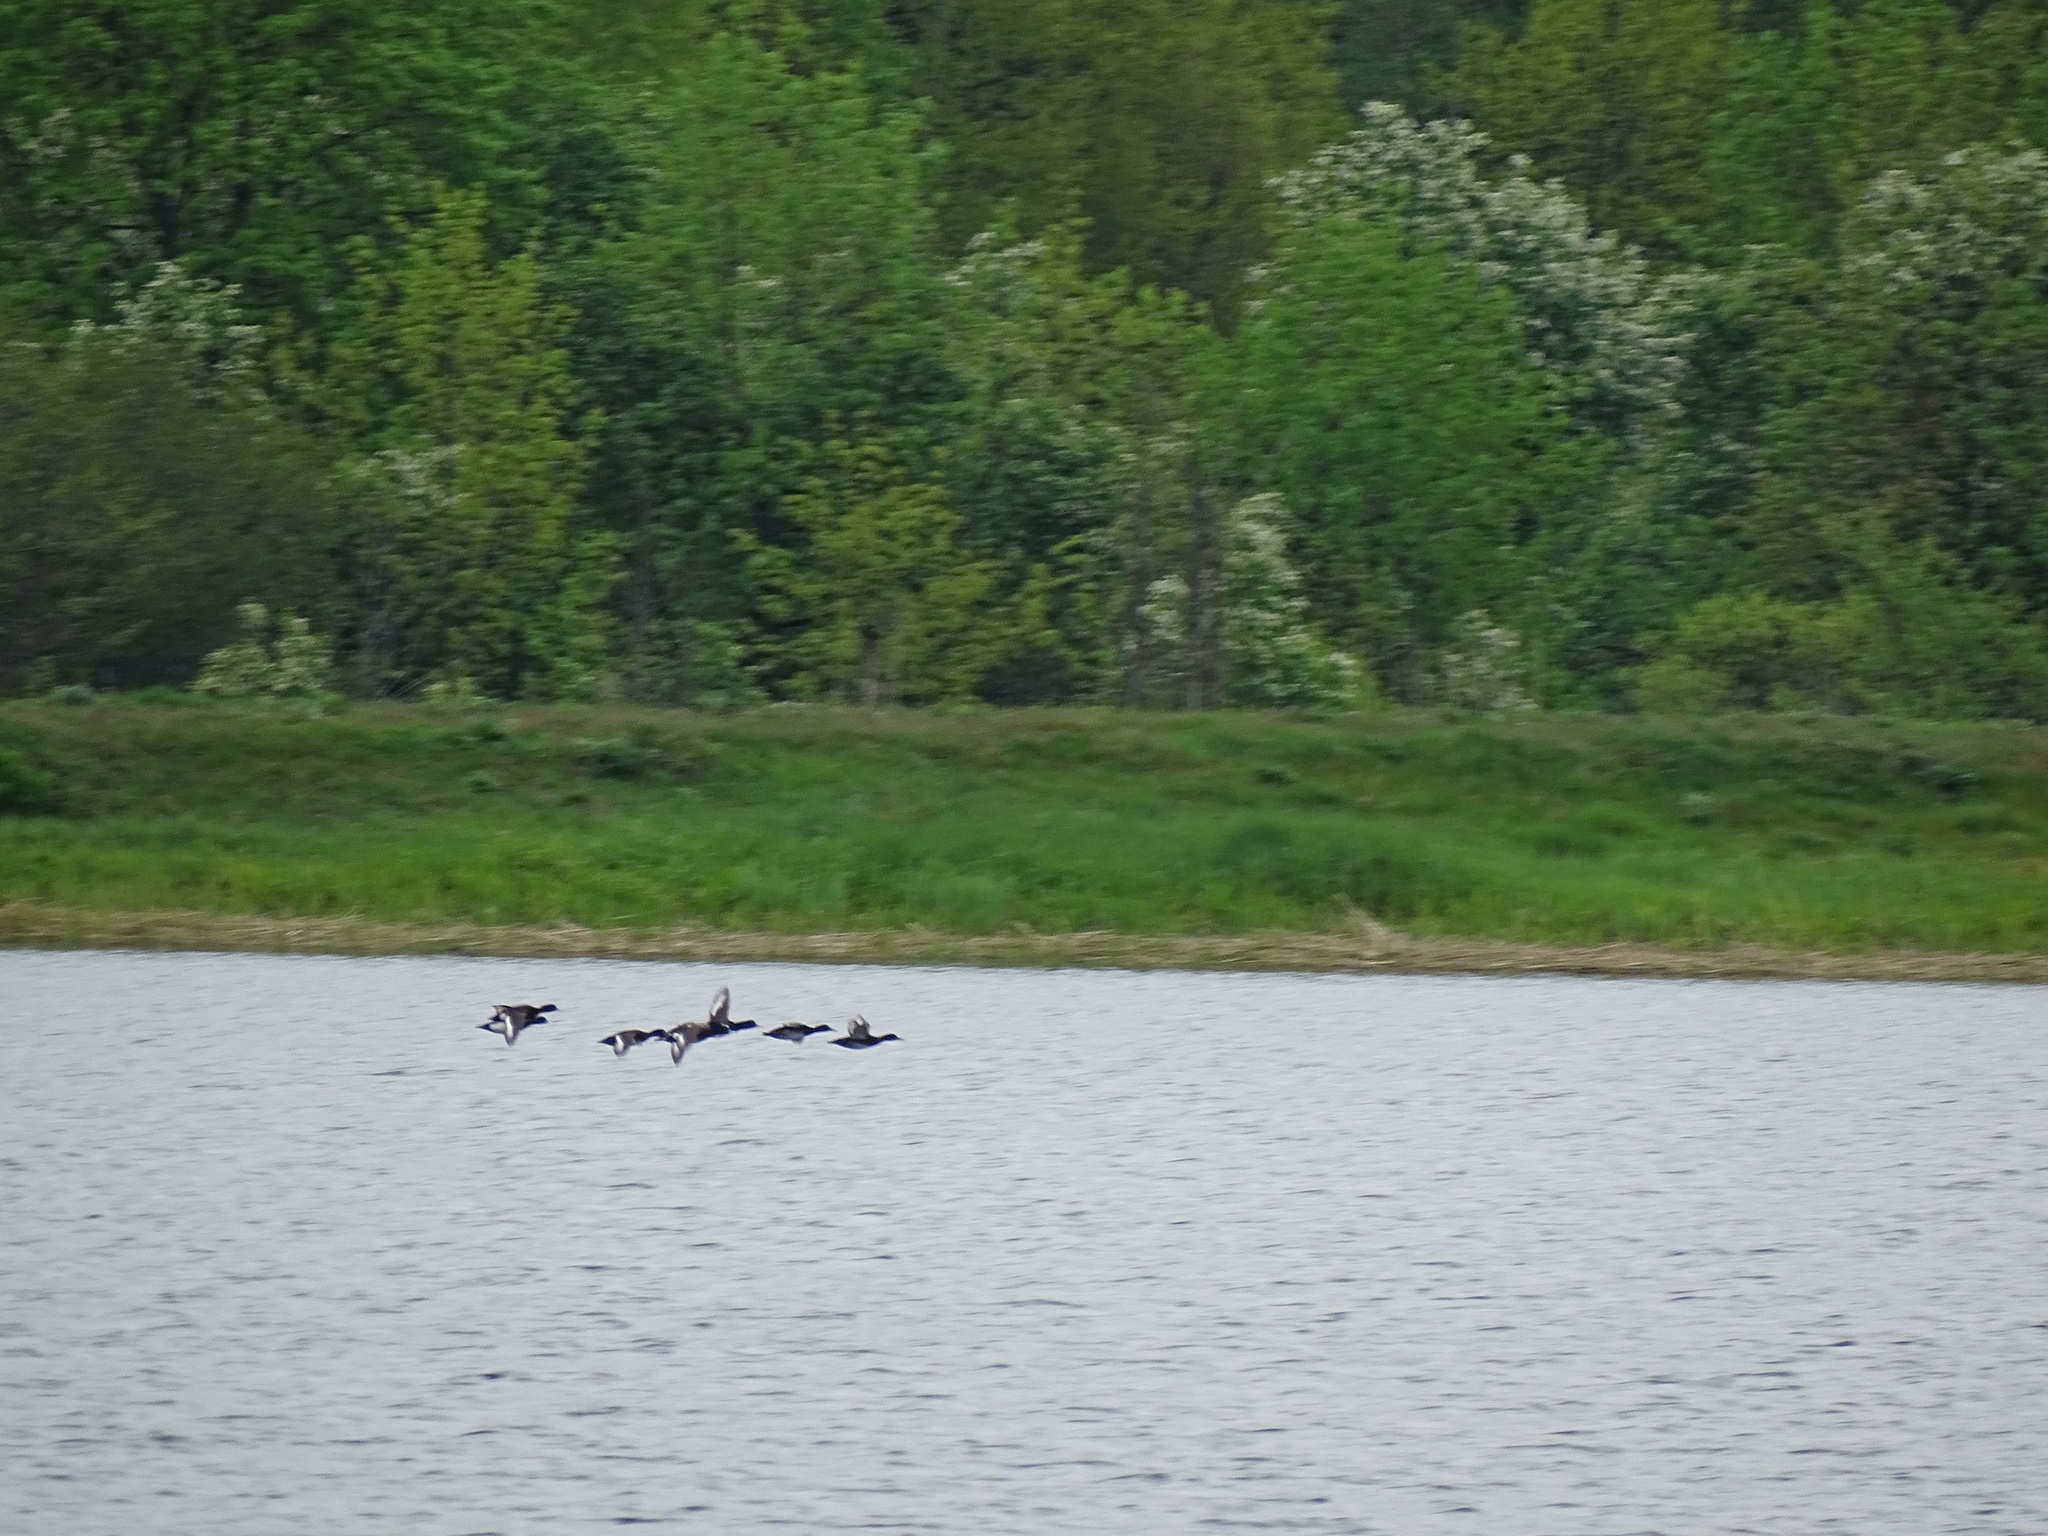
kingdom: Animalia
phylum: Chordata
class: Aves
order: Anseriformes
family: Anatidae
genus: Aythya
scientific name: Aythya fuligula
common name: Tufted duck
